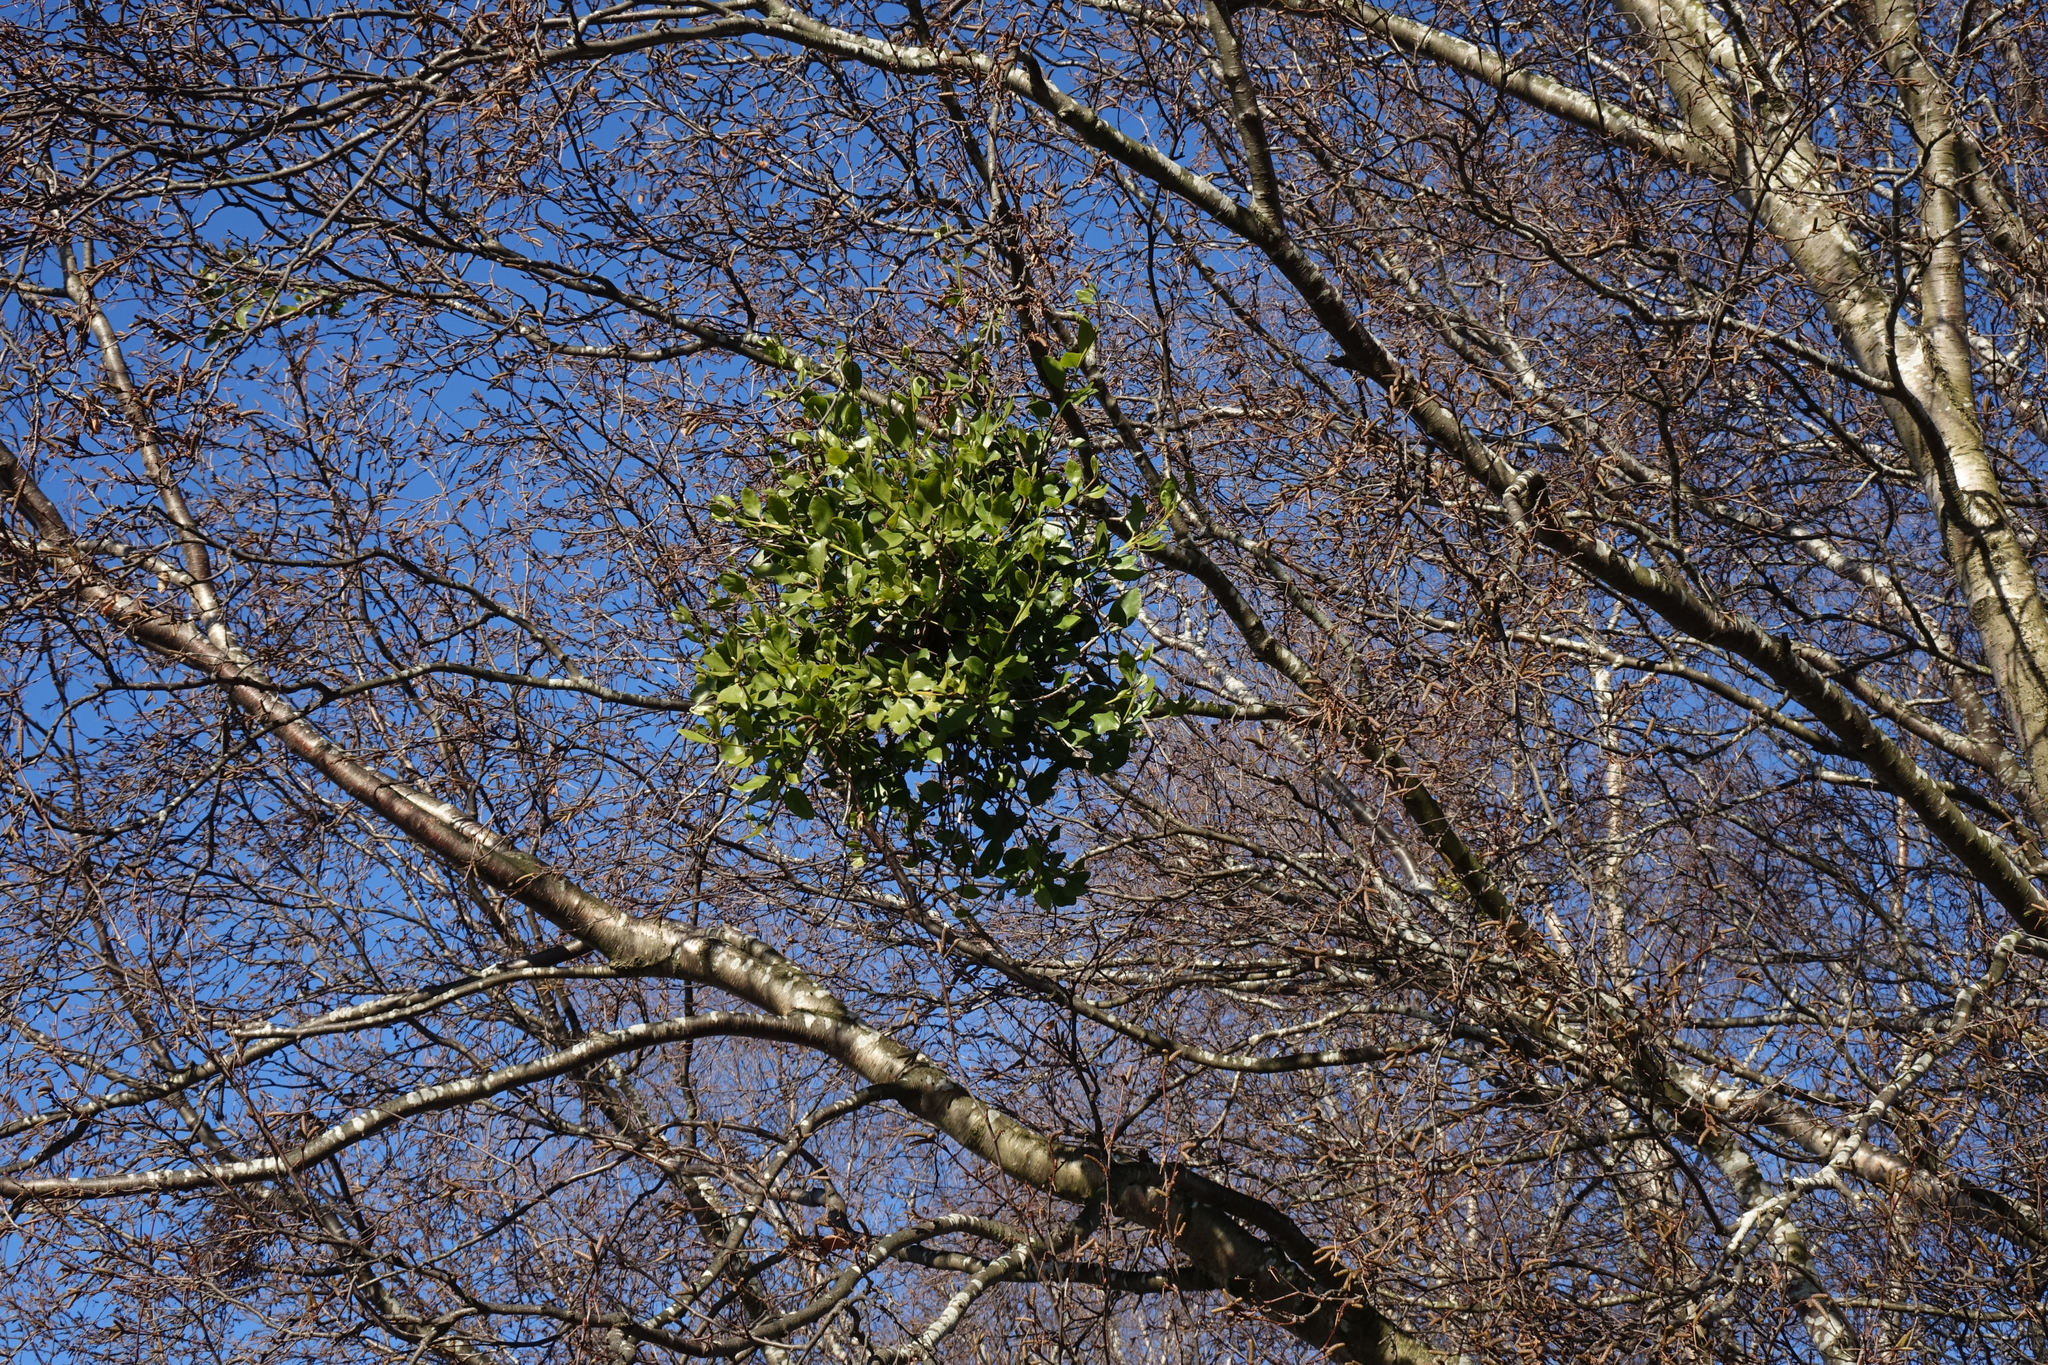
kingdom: Plantae
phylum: Tracheophyta
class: Magnoliopsida
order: Santalales
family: Loranthaceae
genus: Ileostylus
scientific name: Ileostylus micranthus
